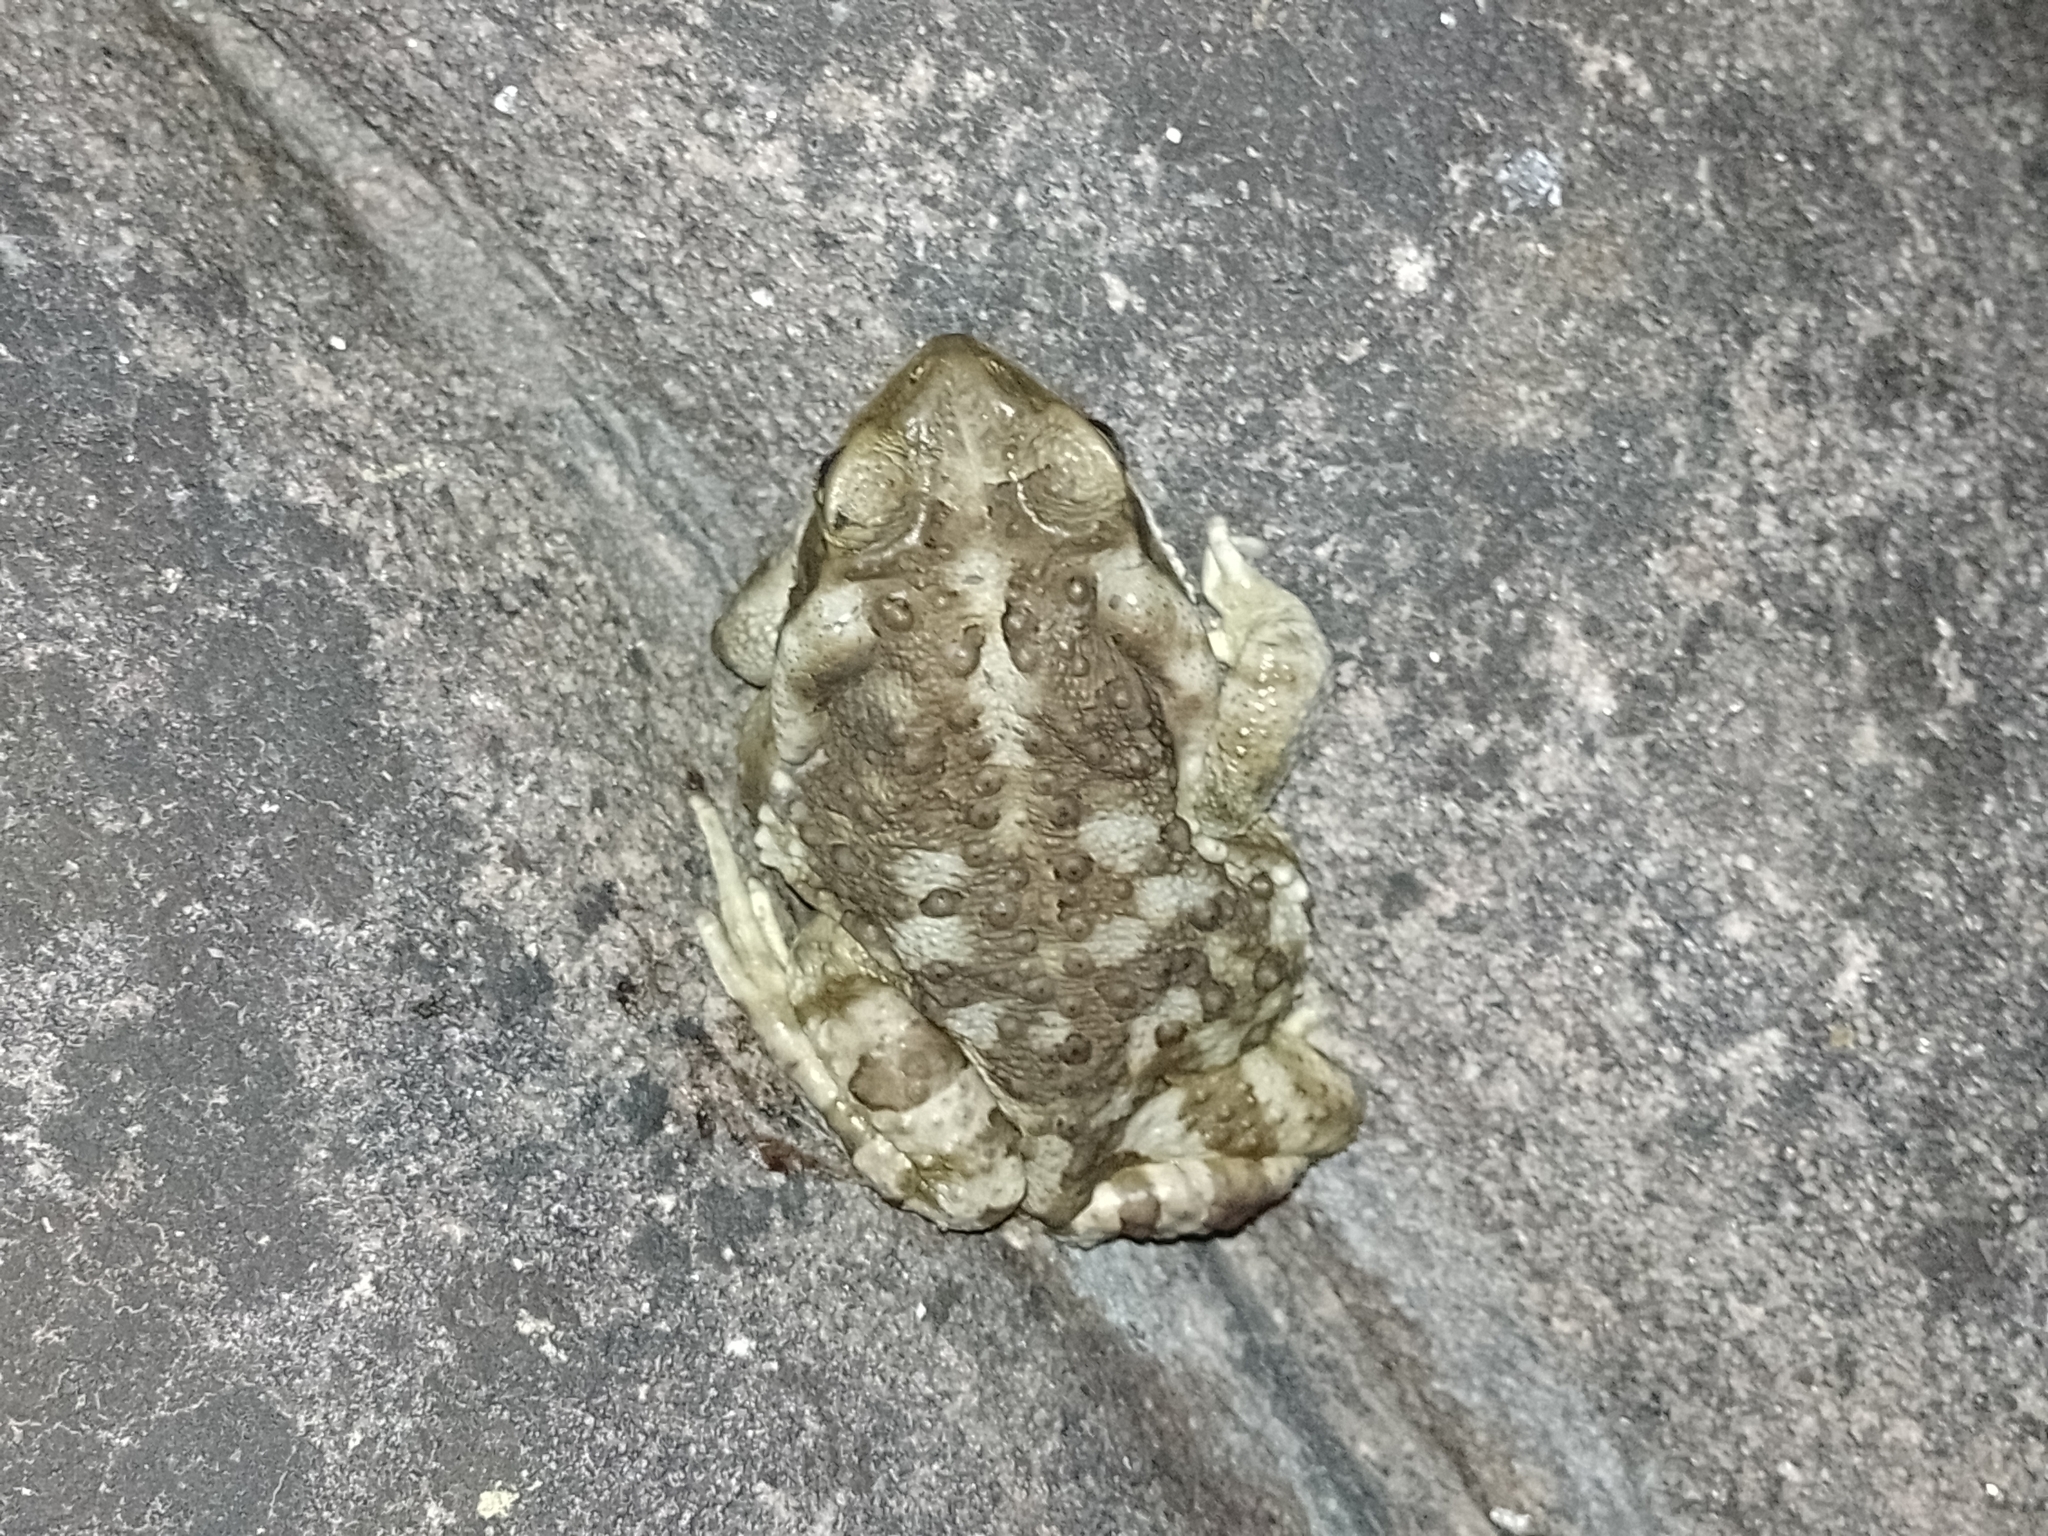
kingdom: Animalia
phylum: Chordata
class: Amphibia
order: Anura
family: Bufonidae
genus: Rhinella
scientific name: Rhinella arenarum
